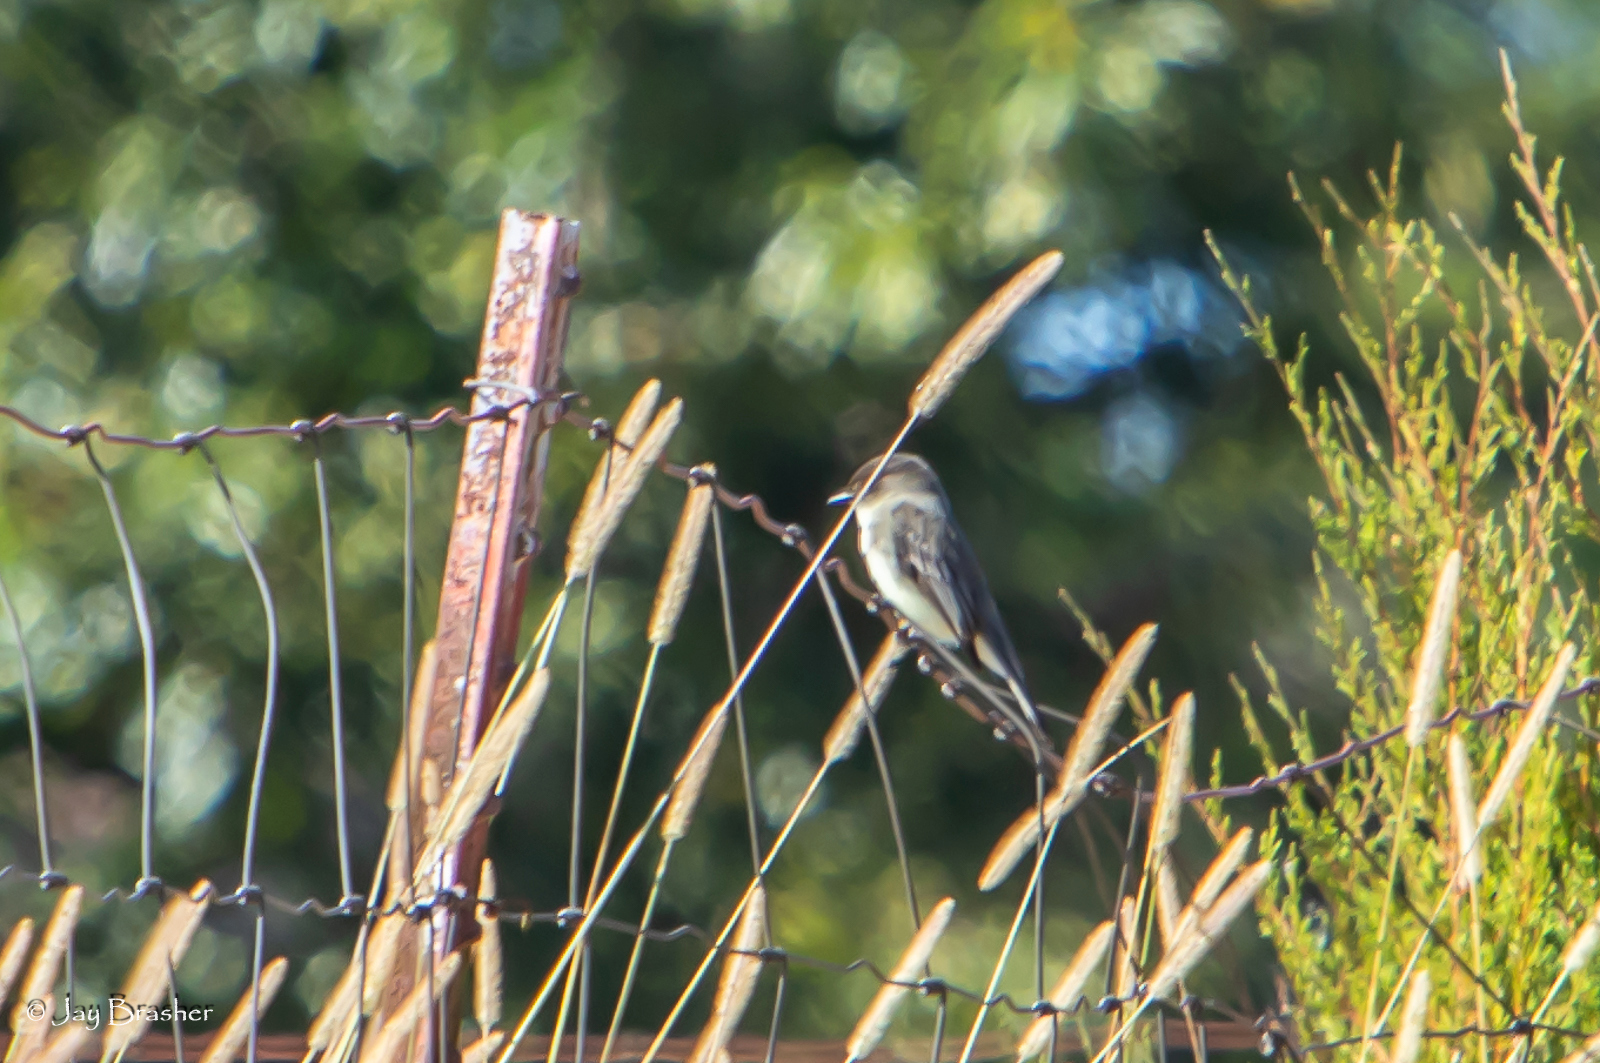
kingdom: Animalia
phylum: Chordata
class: Aves
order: Passeriformes
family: Tyrannidae
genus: Sayornis
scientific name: Sayornis phoebe
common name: Eastern phoebe
